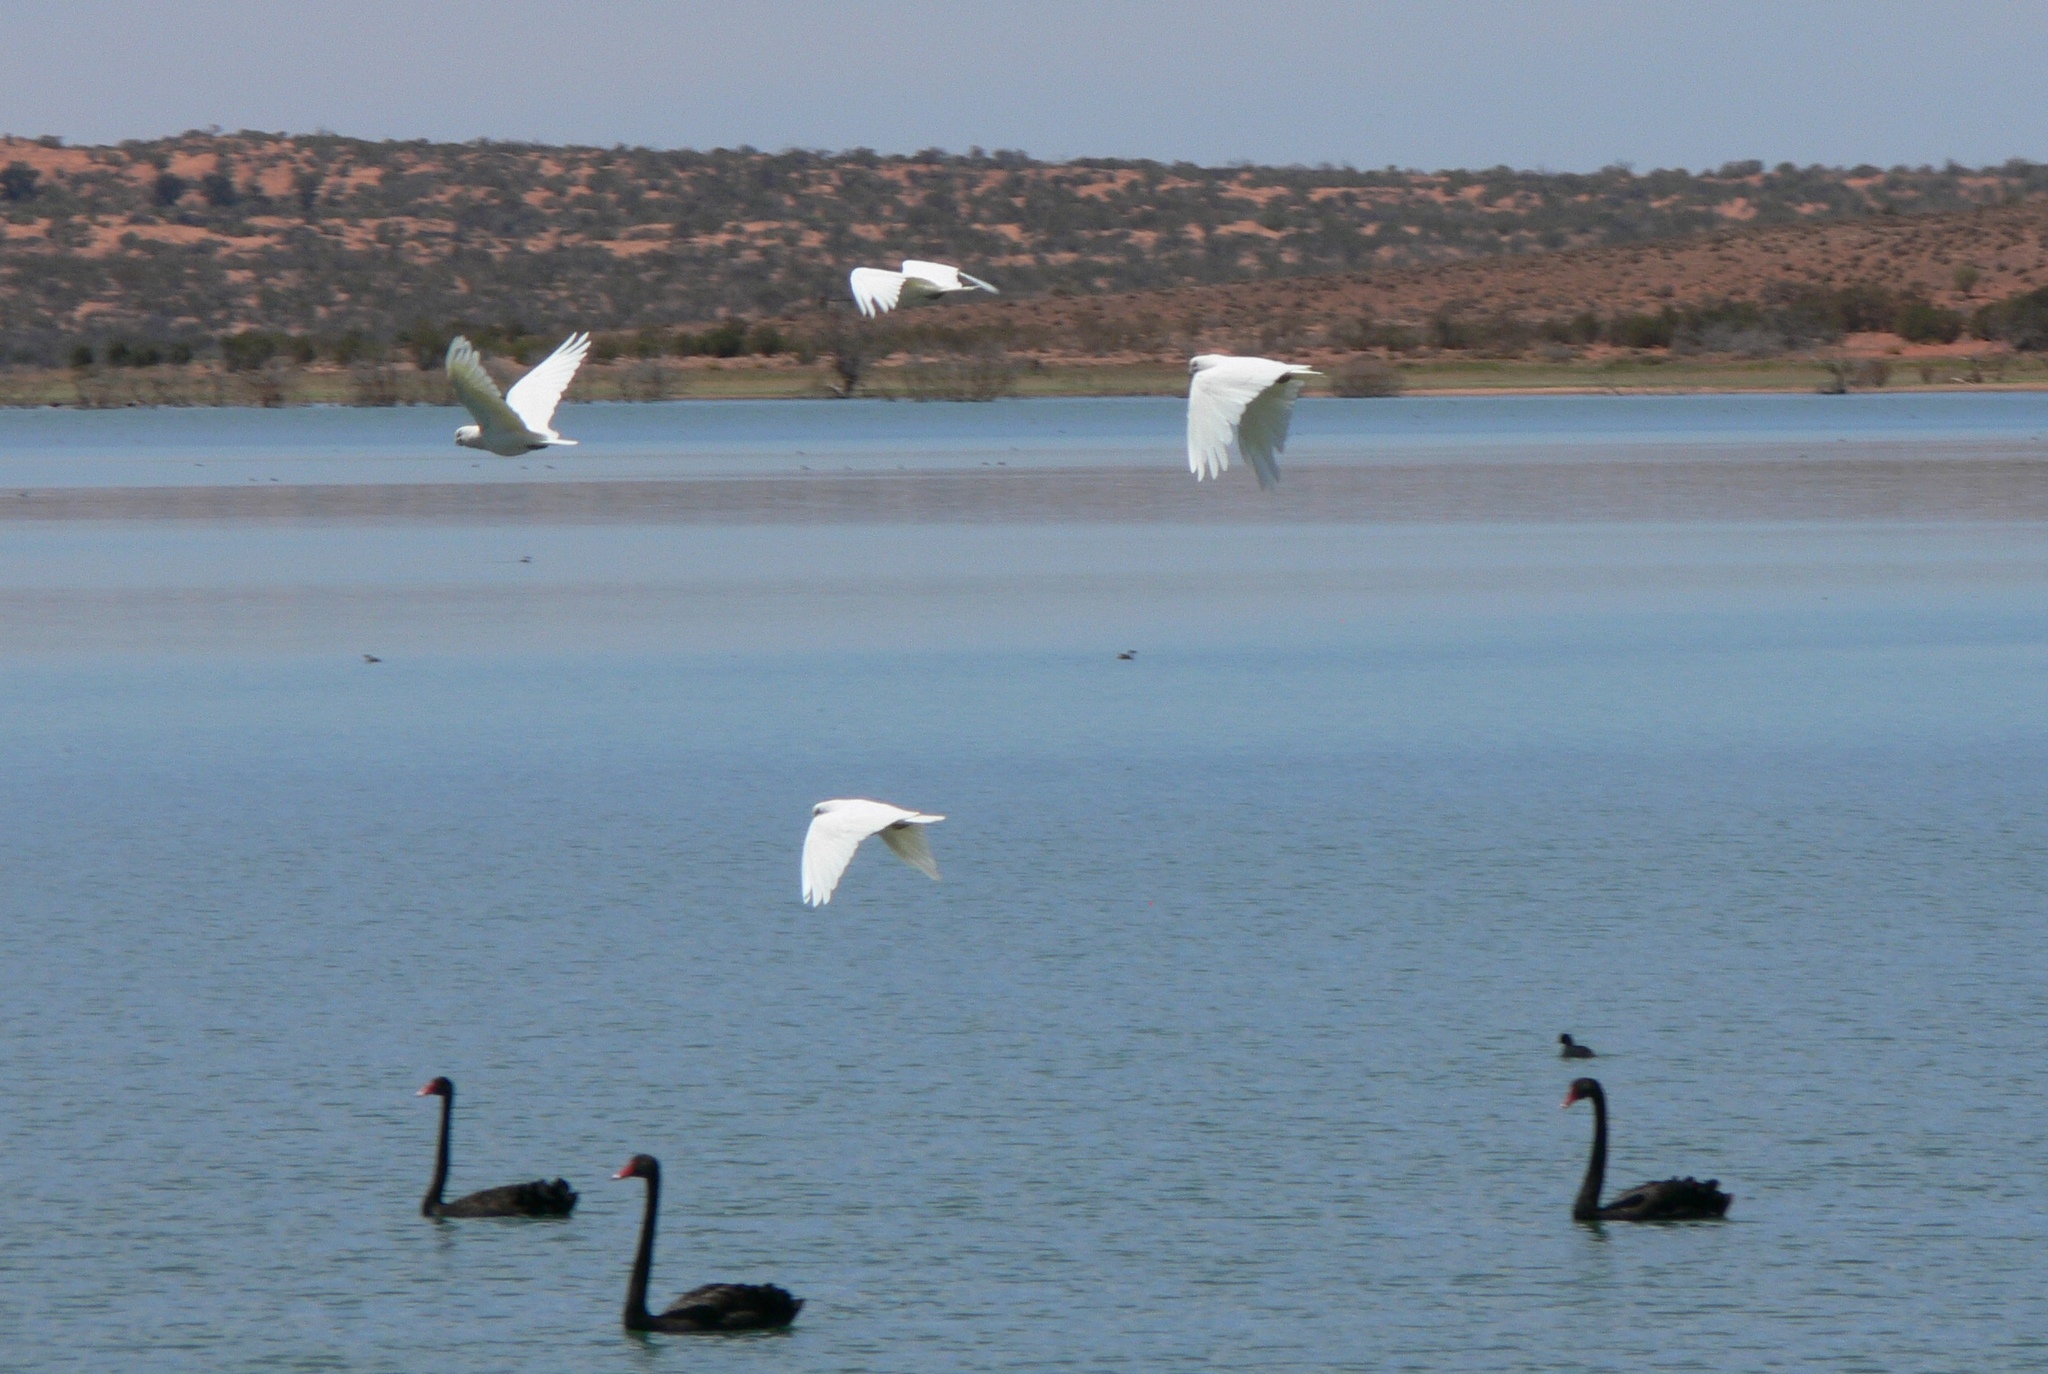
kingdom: Animalia
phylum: Chordata
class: Aves
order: Psittaciformes
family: Psittacidae
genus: Cacatua
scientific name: Cacatua sanguinea
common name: Little corella
